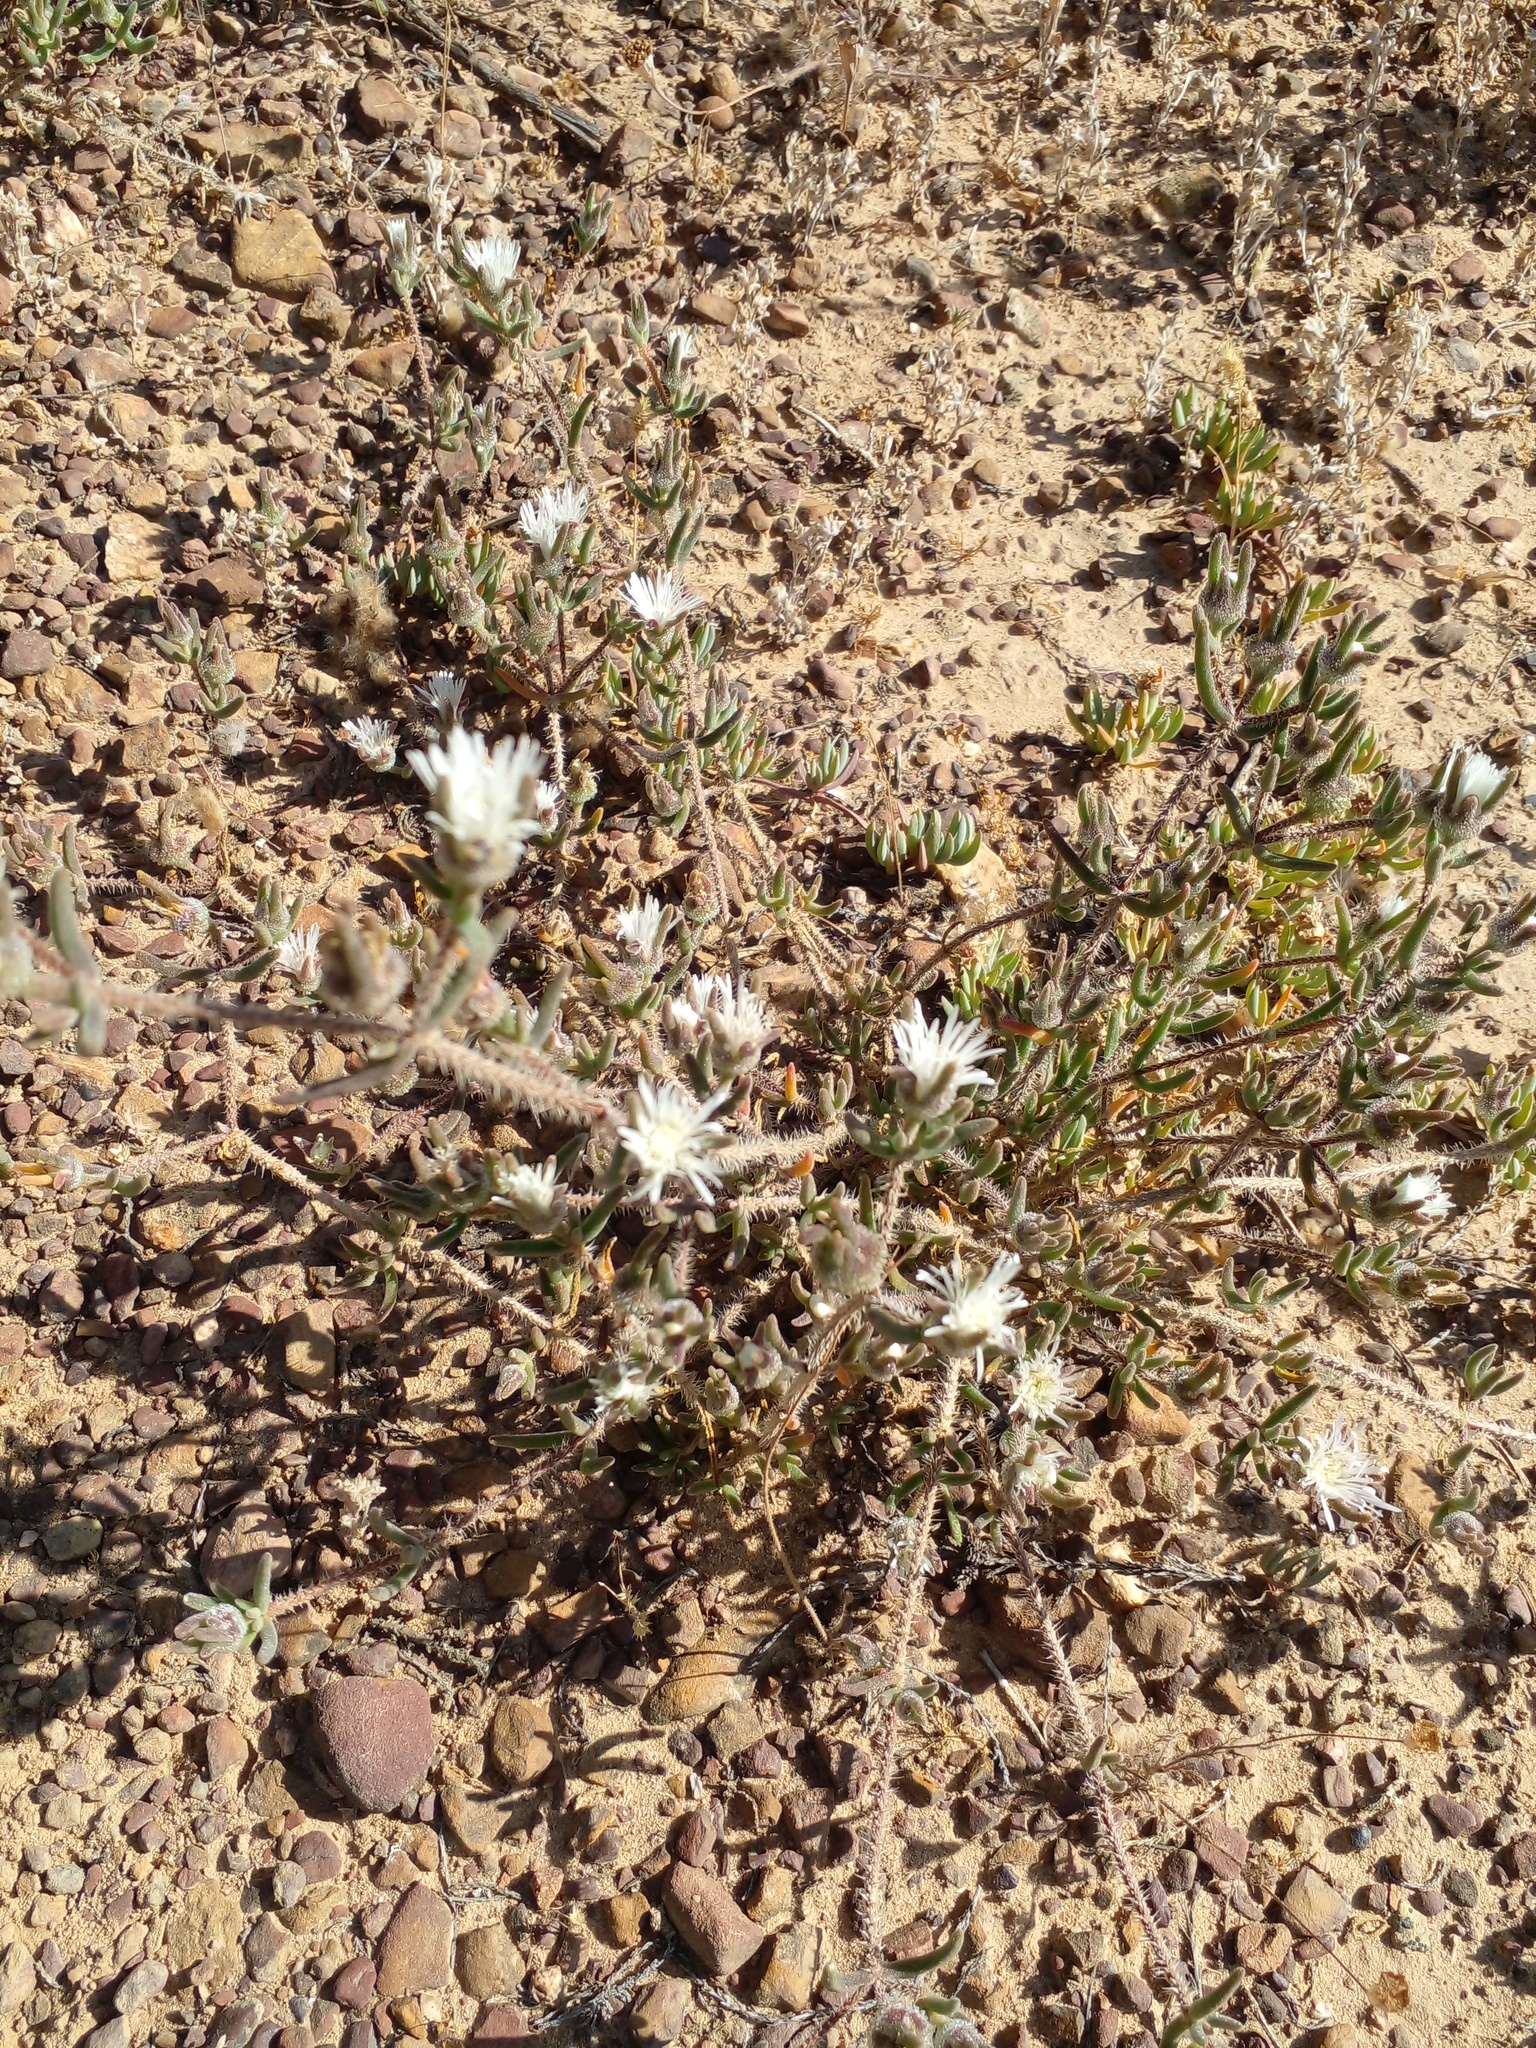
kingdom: Plantae
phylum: Tracheophyta
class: Magnoliopsida
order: Caryophyllales
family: Aizoaceae
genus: Drosanthemum
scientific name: Drosanthemum calycinum
